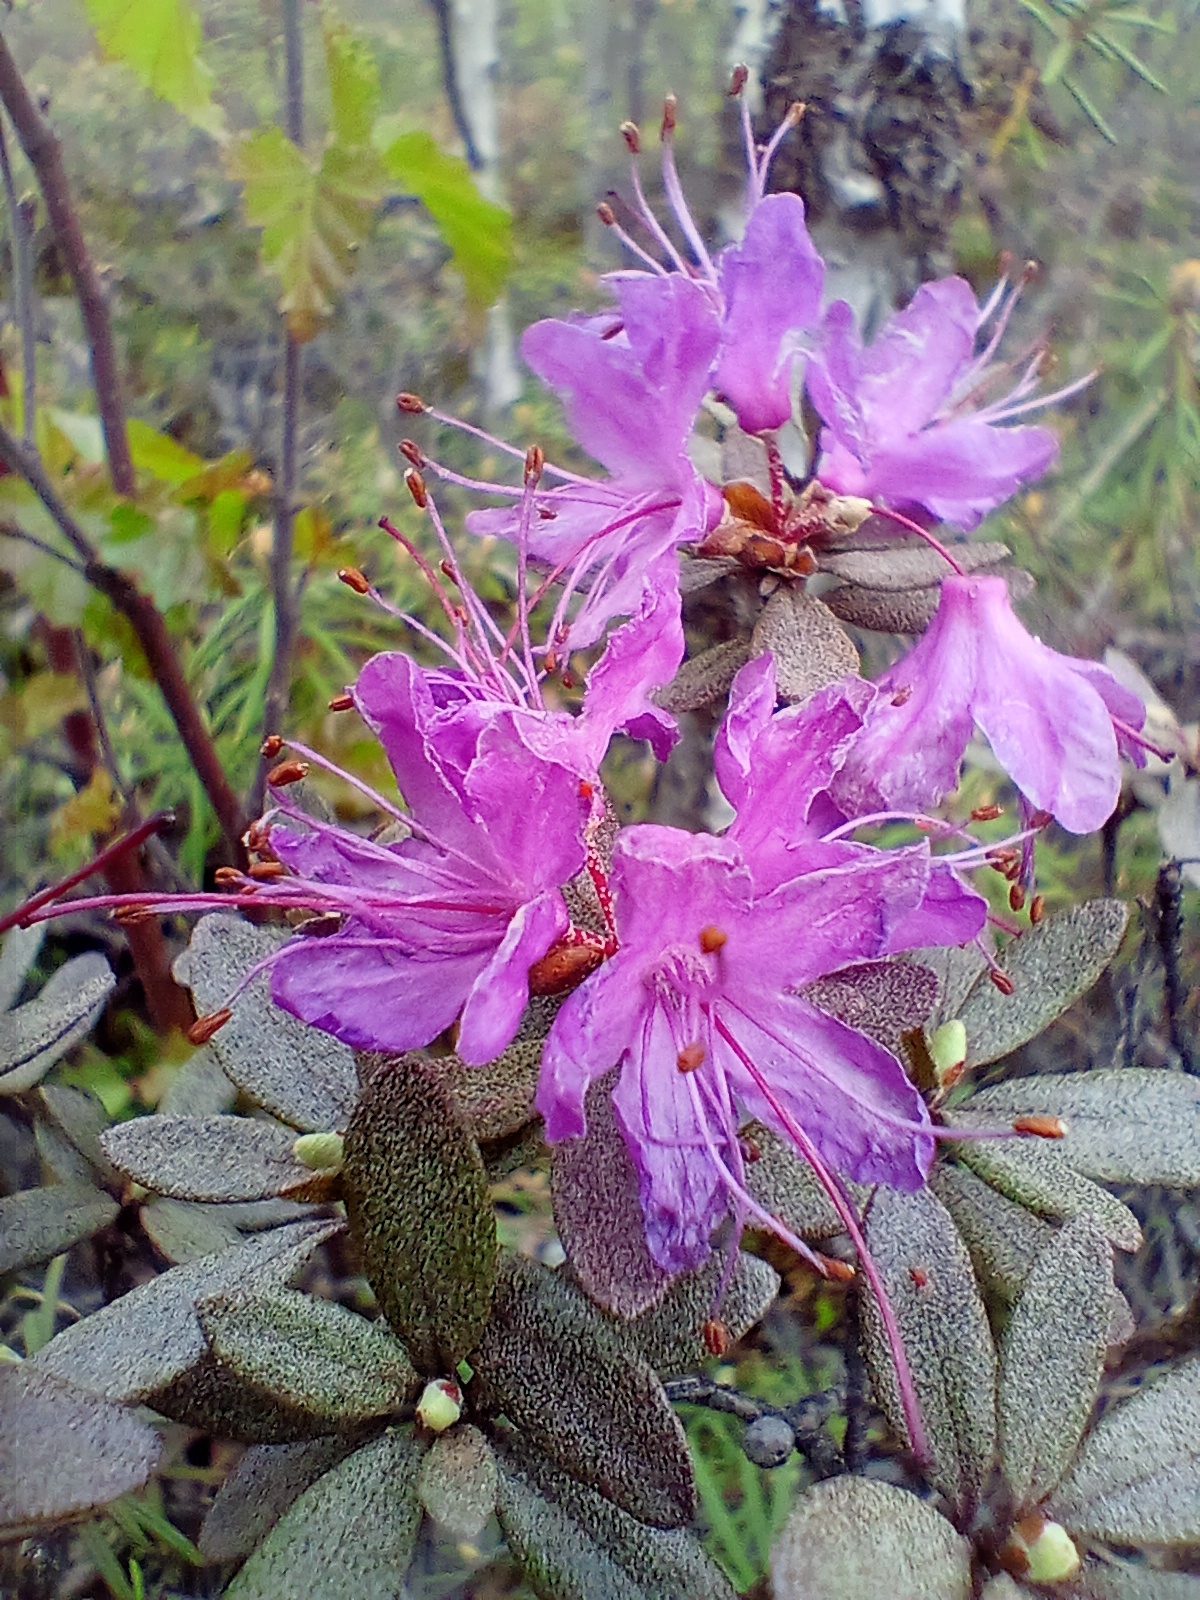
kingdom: Plantae
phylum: Tracheophyta
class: Magnoliopsida
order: Ericales
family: Ericaceae
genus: Rhododendron
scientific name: Rhododendron dauricum
